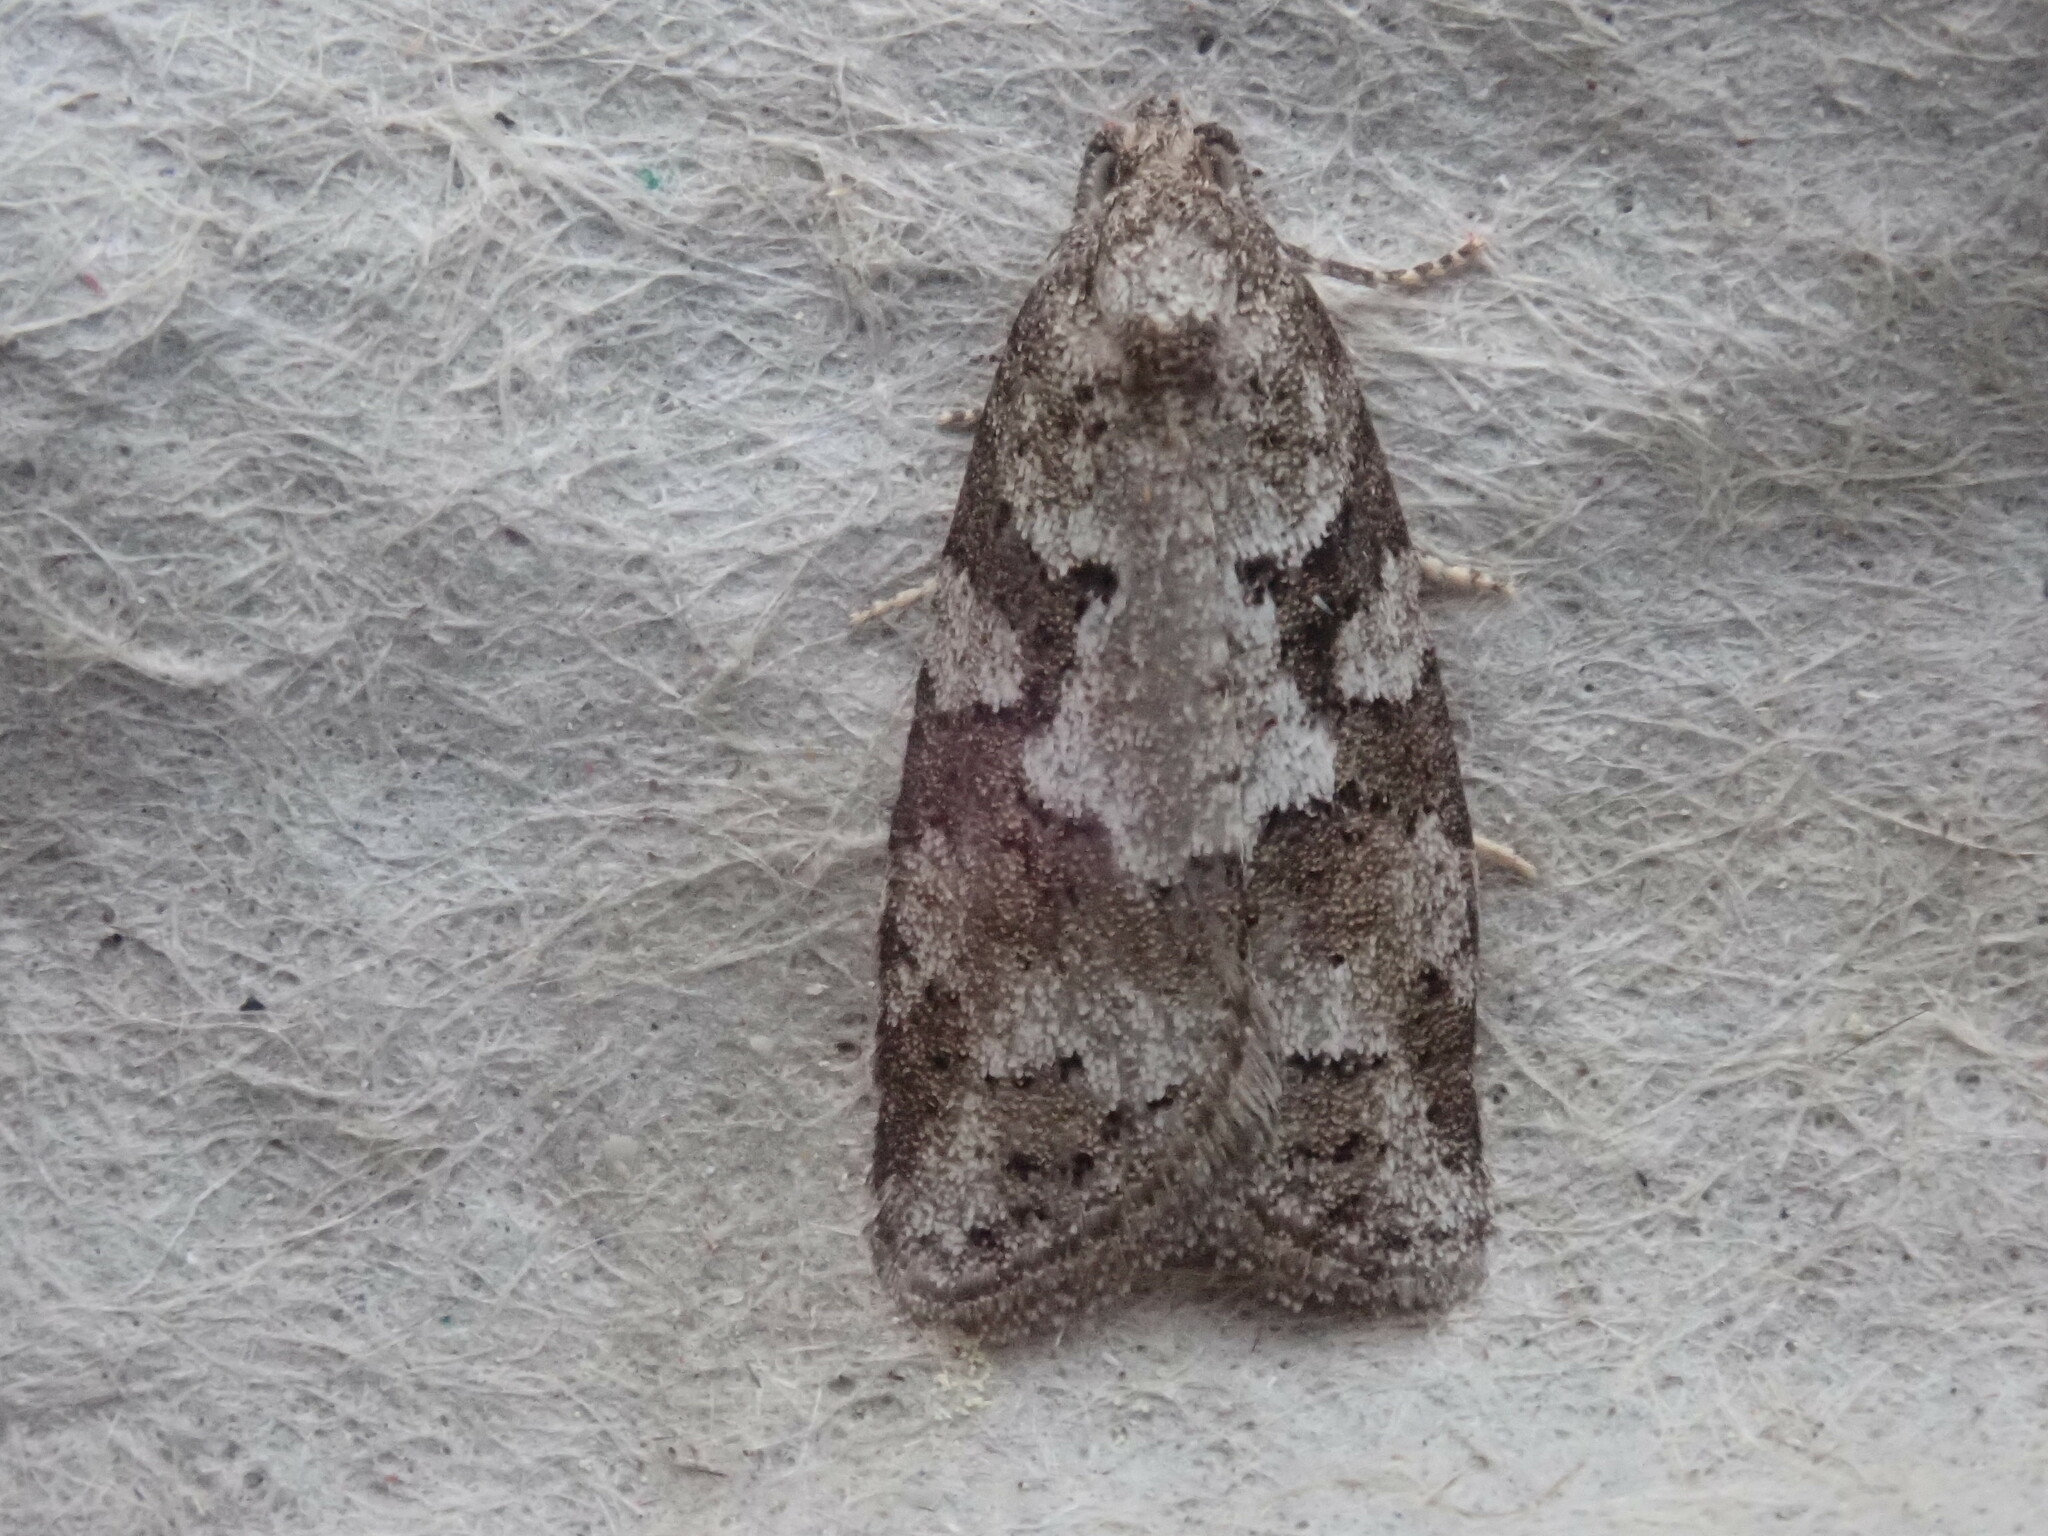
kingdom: Animalia
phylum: Arthropoda
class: Insecta
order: Lepidoptera
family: Tortricidae
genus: Cnephasia
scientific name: Cnephasia stephensiana
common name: Grey tortrix
